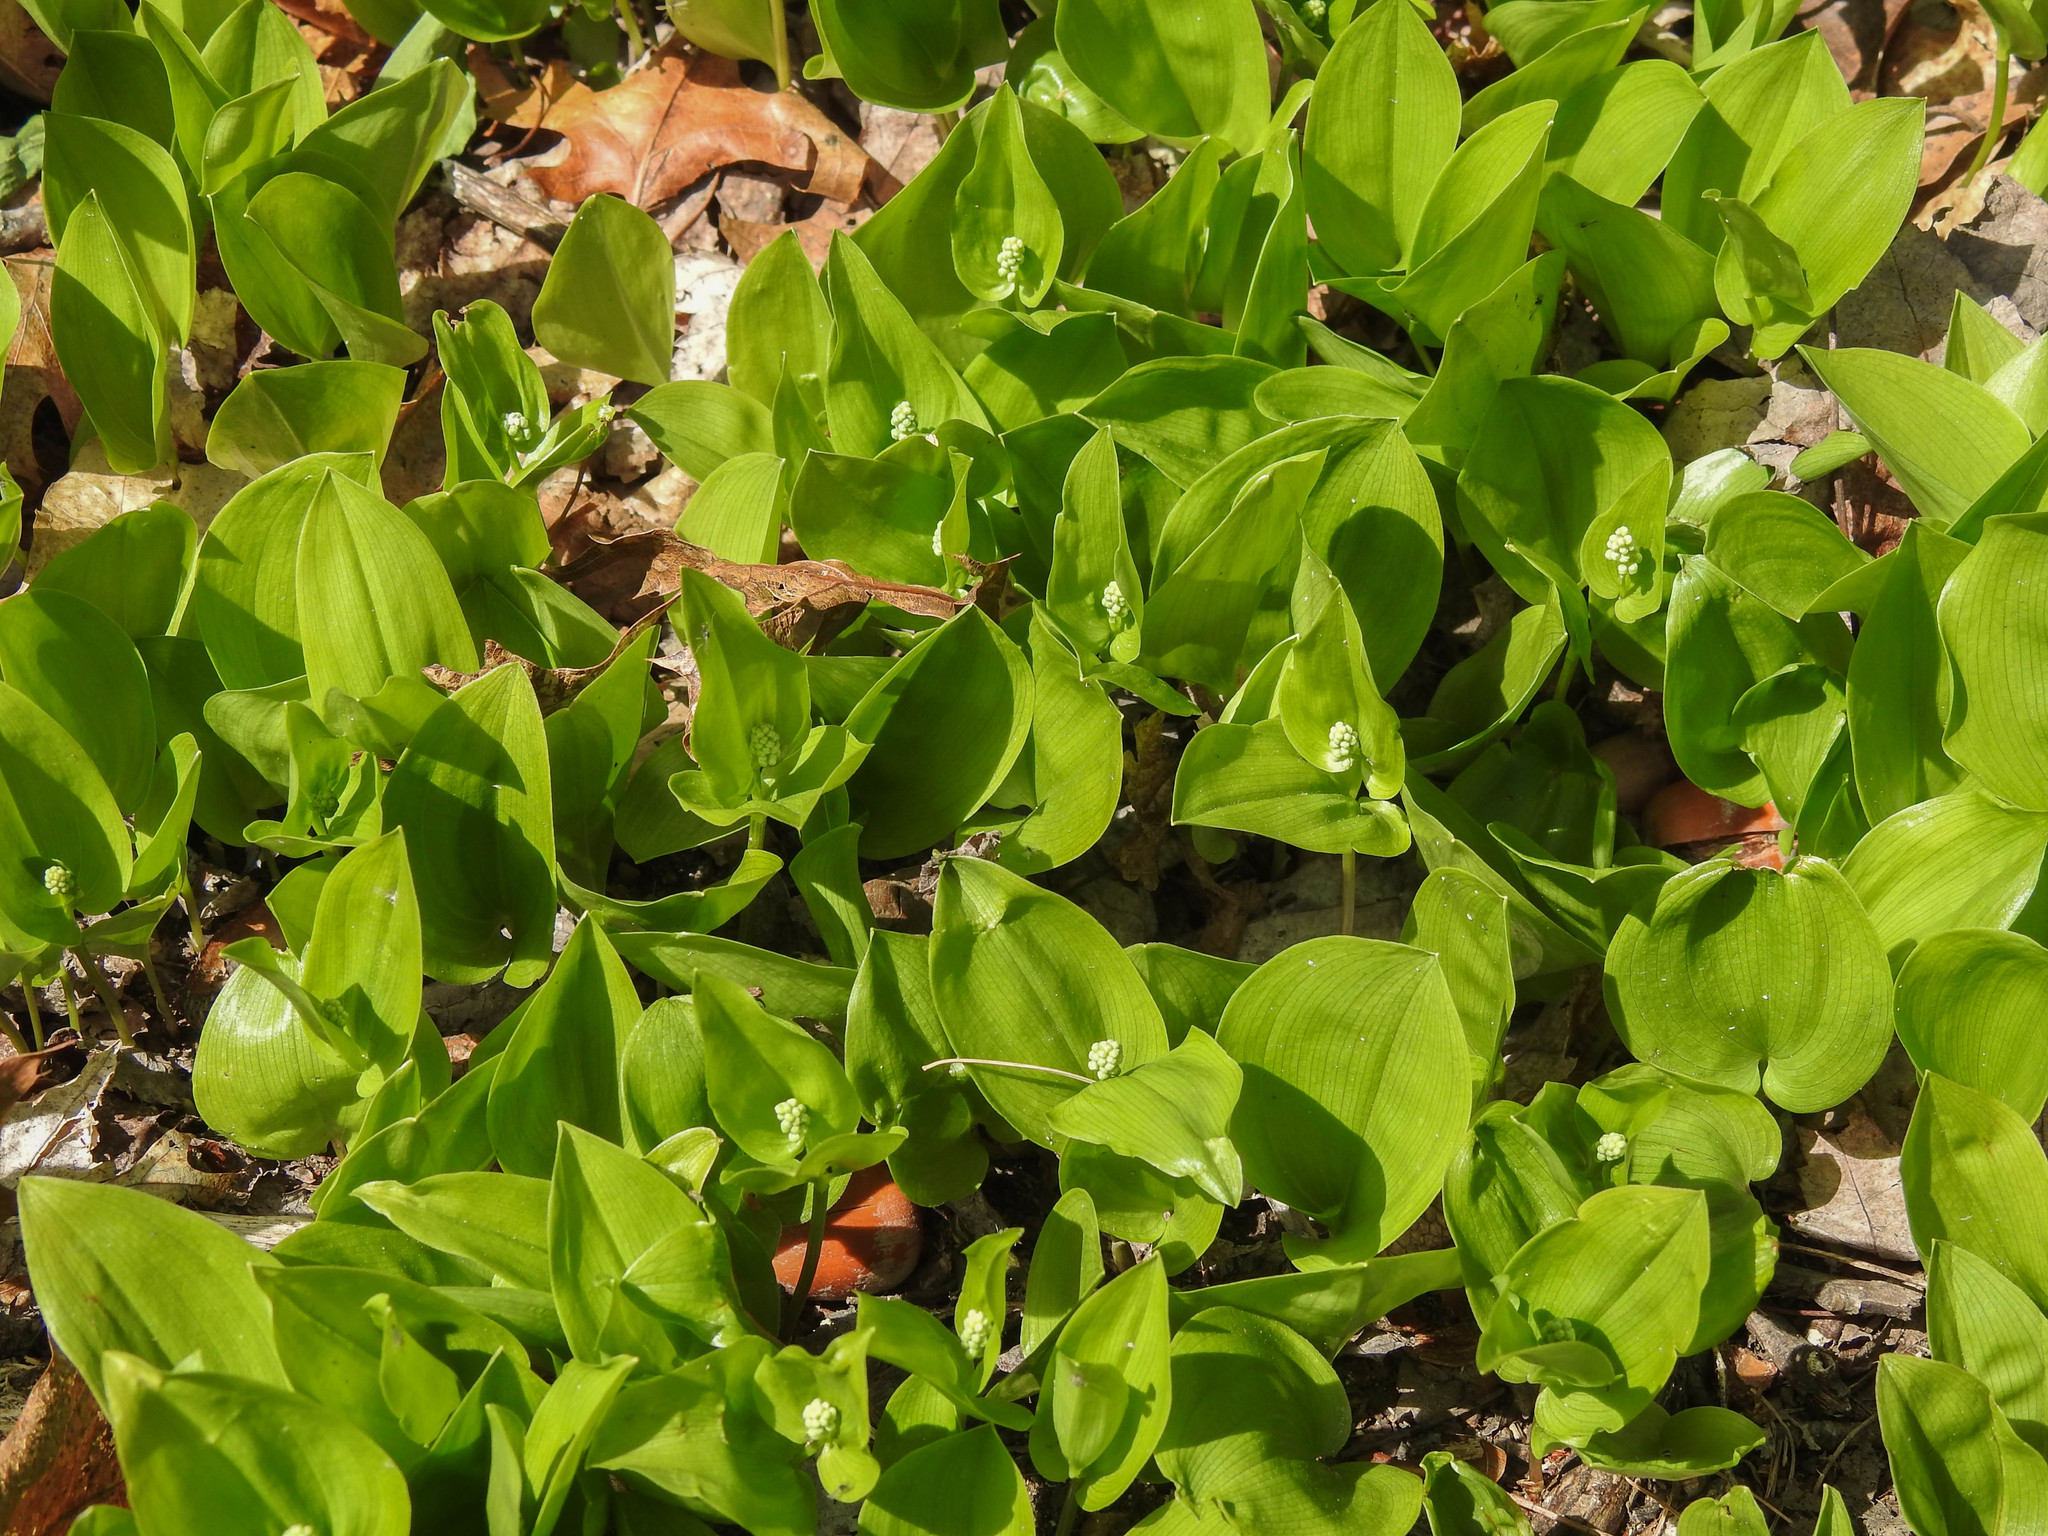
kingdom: Plantae
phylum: Tracheophyta
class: Liliopsida
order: Asparagales
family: Asparagaceae
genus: Maianthemum
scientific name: Maianthemum canadense
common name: False lily-of-the-valley
